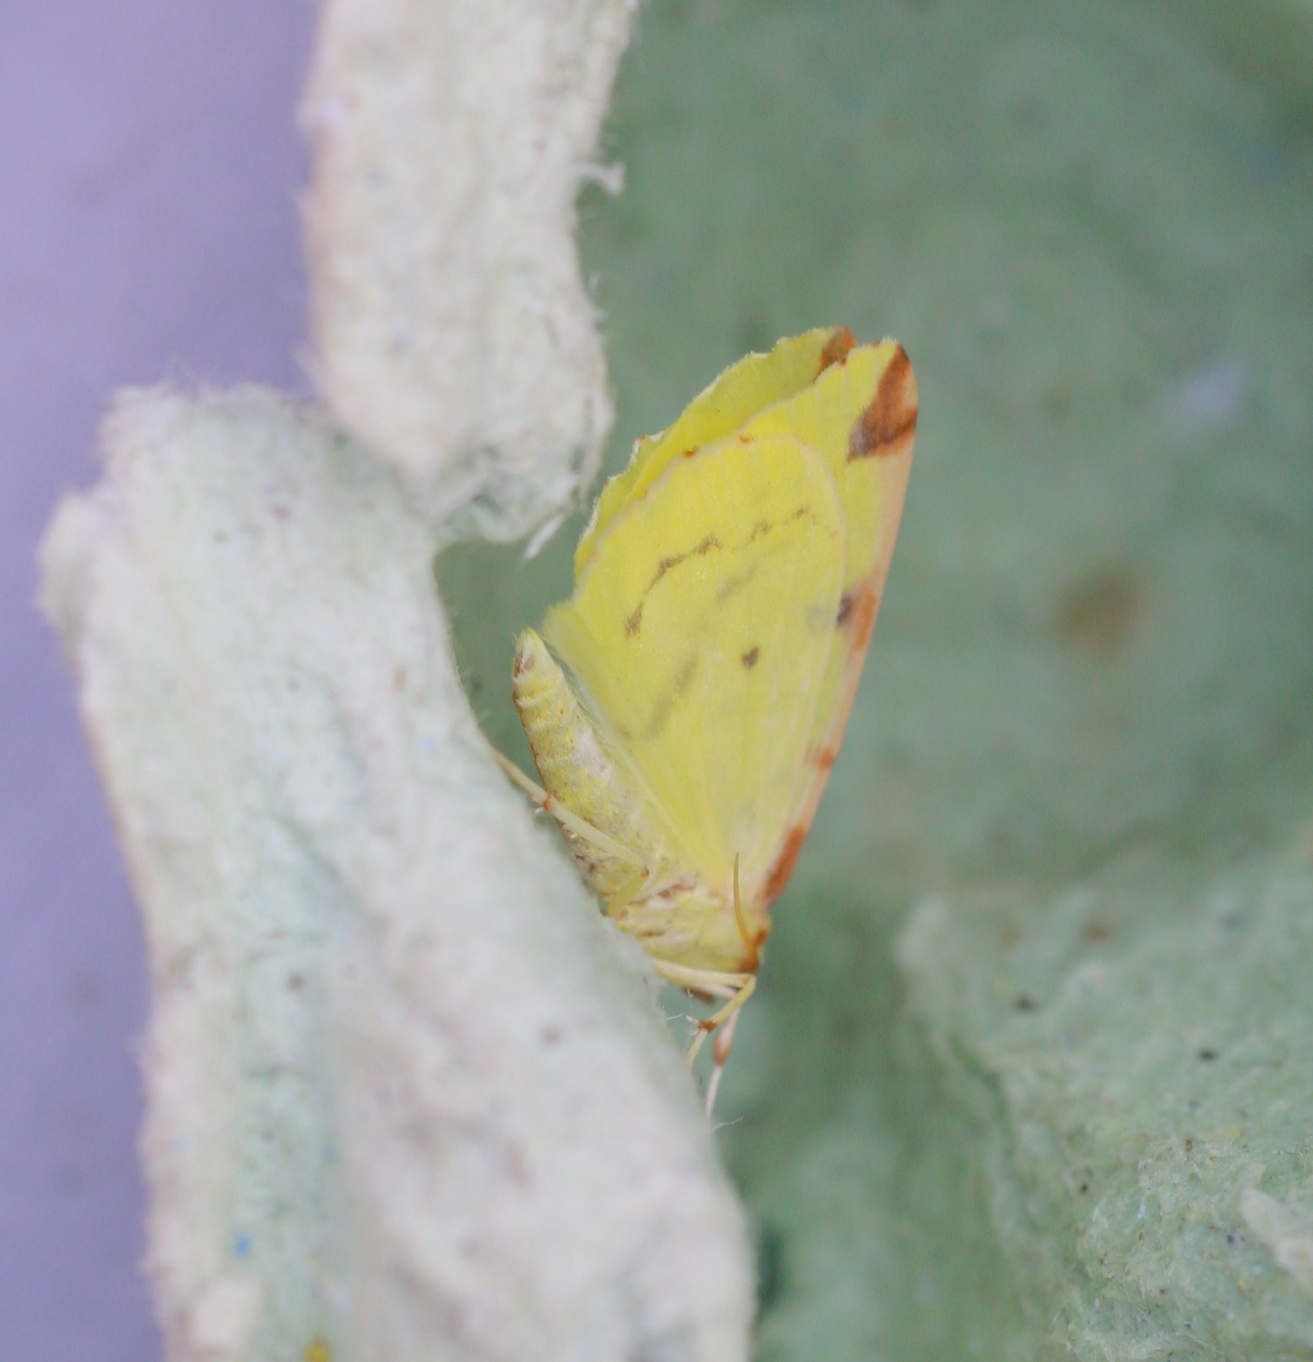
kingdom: Animalia
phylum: Arthropoda
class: Insecta
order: Lepidoptera
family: Geometridae
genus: Opisthograptis
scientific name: Opisthograptis luteolata
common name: Brimstone moth
